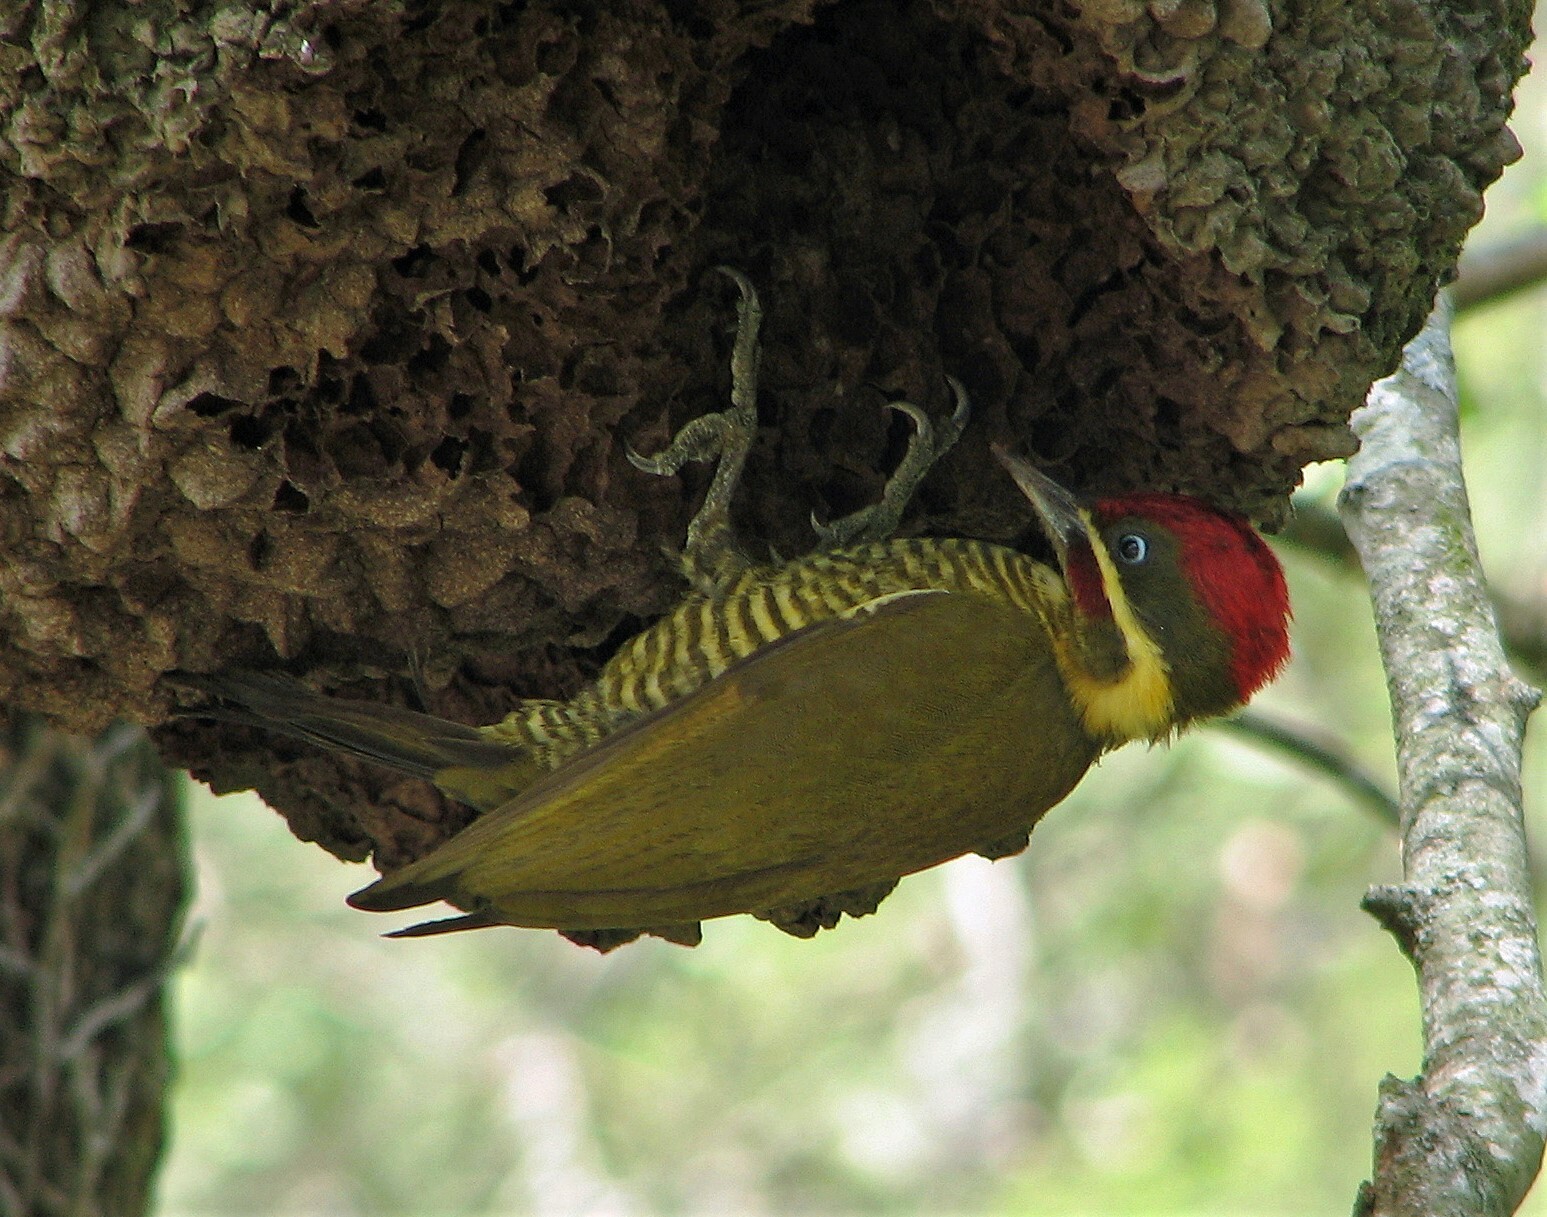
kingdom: Animalia
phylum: Chordata
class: Aves
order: Piciformes
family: Picidae
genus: Piculus
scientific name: Piculus chrysochloros
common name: Golden-green woodpecker
